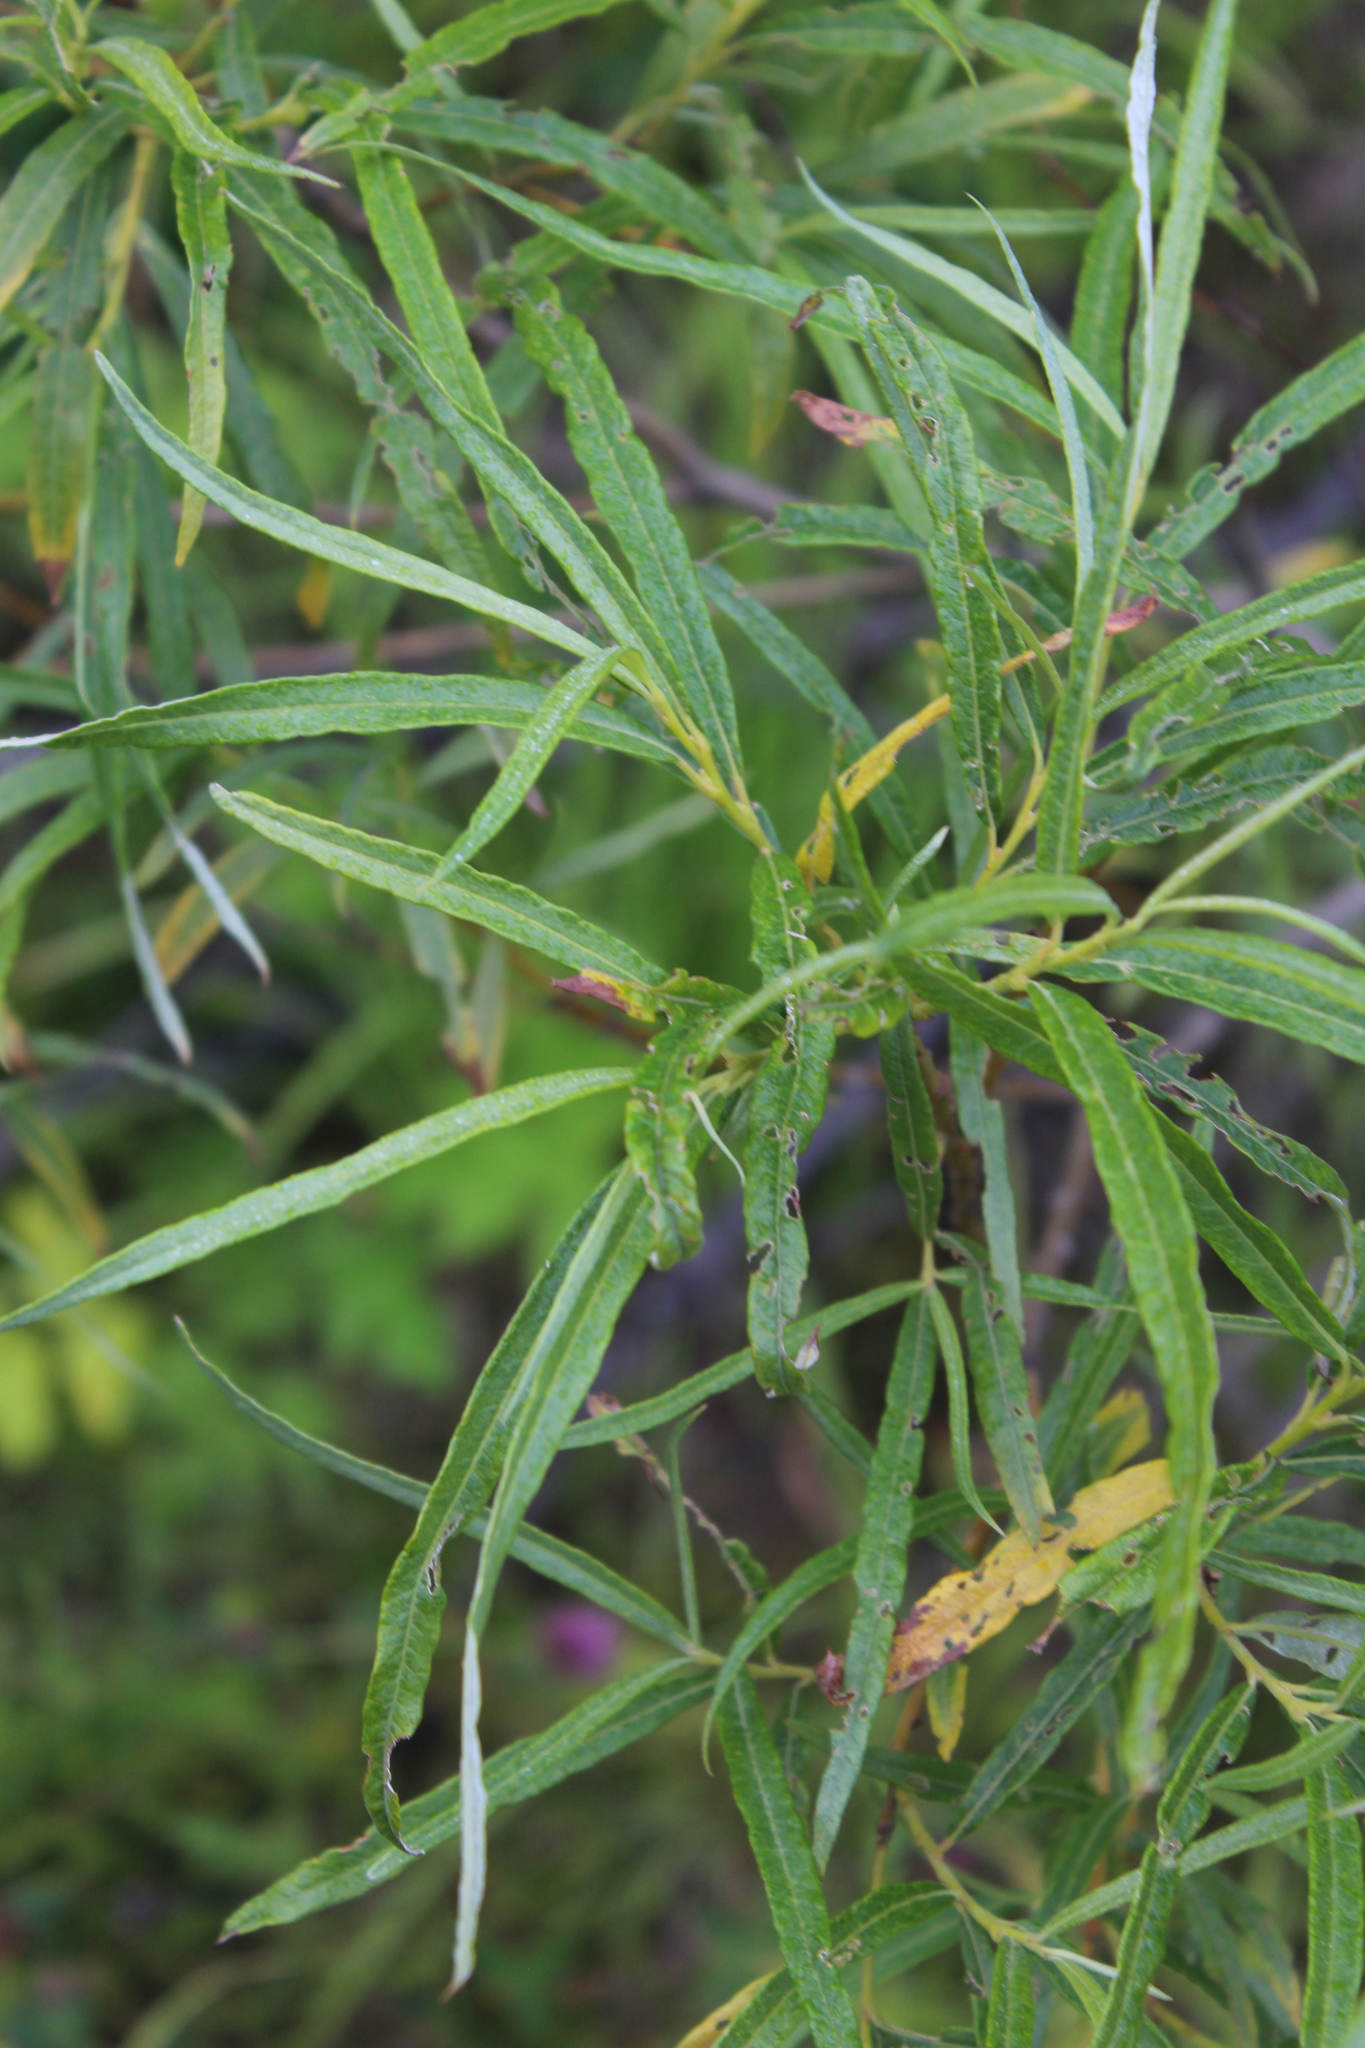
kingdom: Plantae
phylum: Tracheophyta
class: Magnoliopsida
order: Malpighiales
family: Salicaceae
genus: Salix
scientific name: Salix viminalis
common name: Osier
